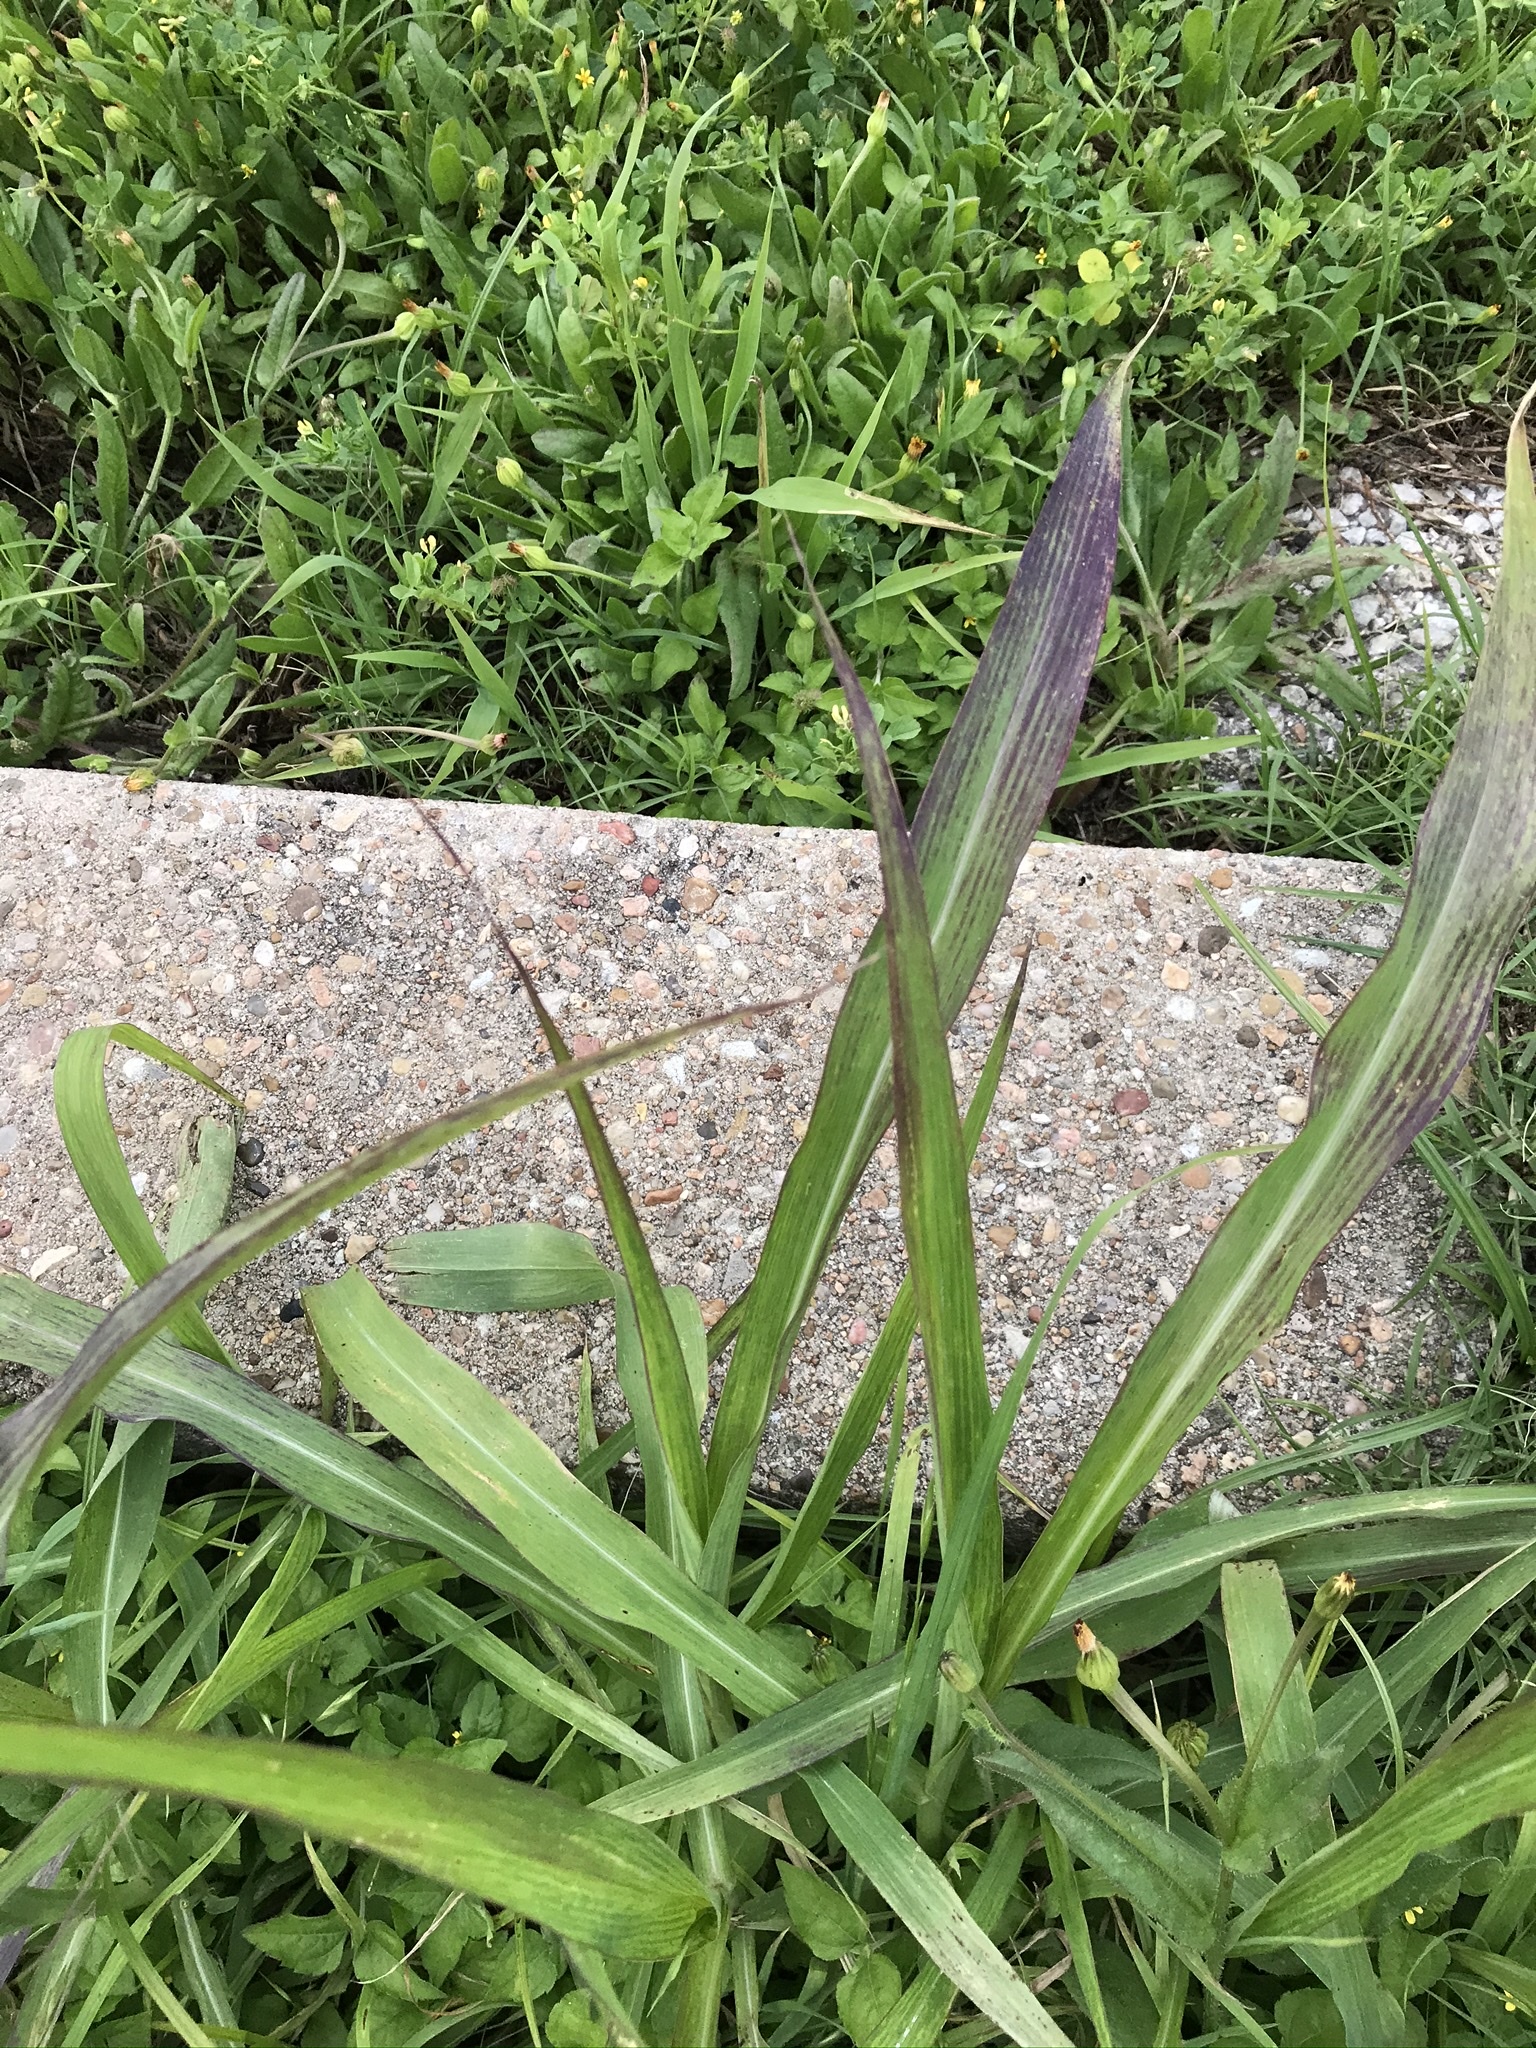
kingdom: Plantae
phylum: Tracheophyta
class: Liliopsida
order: Poales
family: Poaceae
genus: Sorghum
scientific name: Sorghum halepense
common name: Johnson-grass
